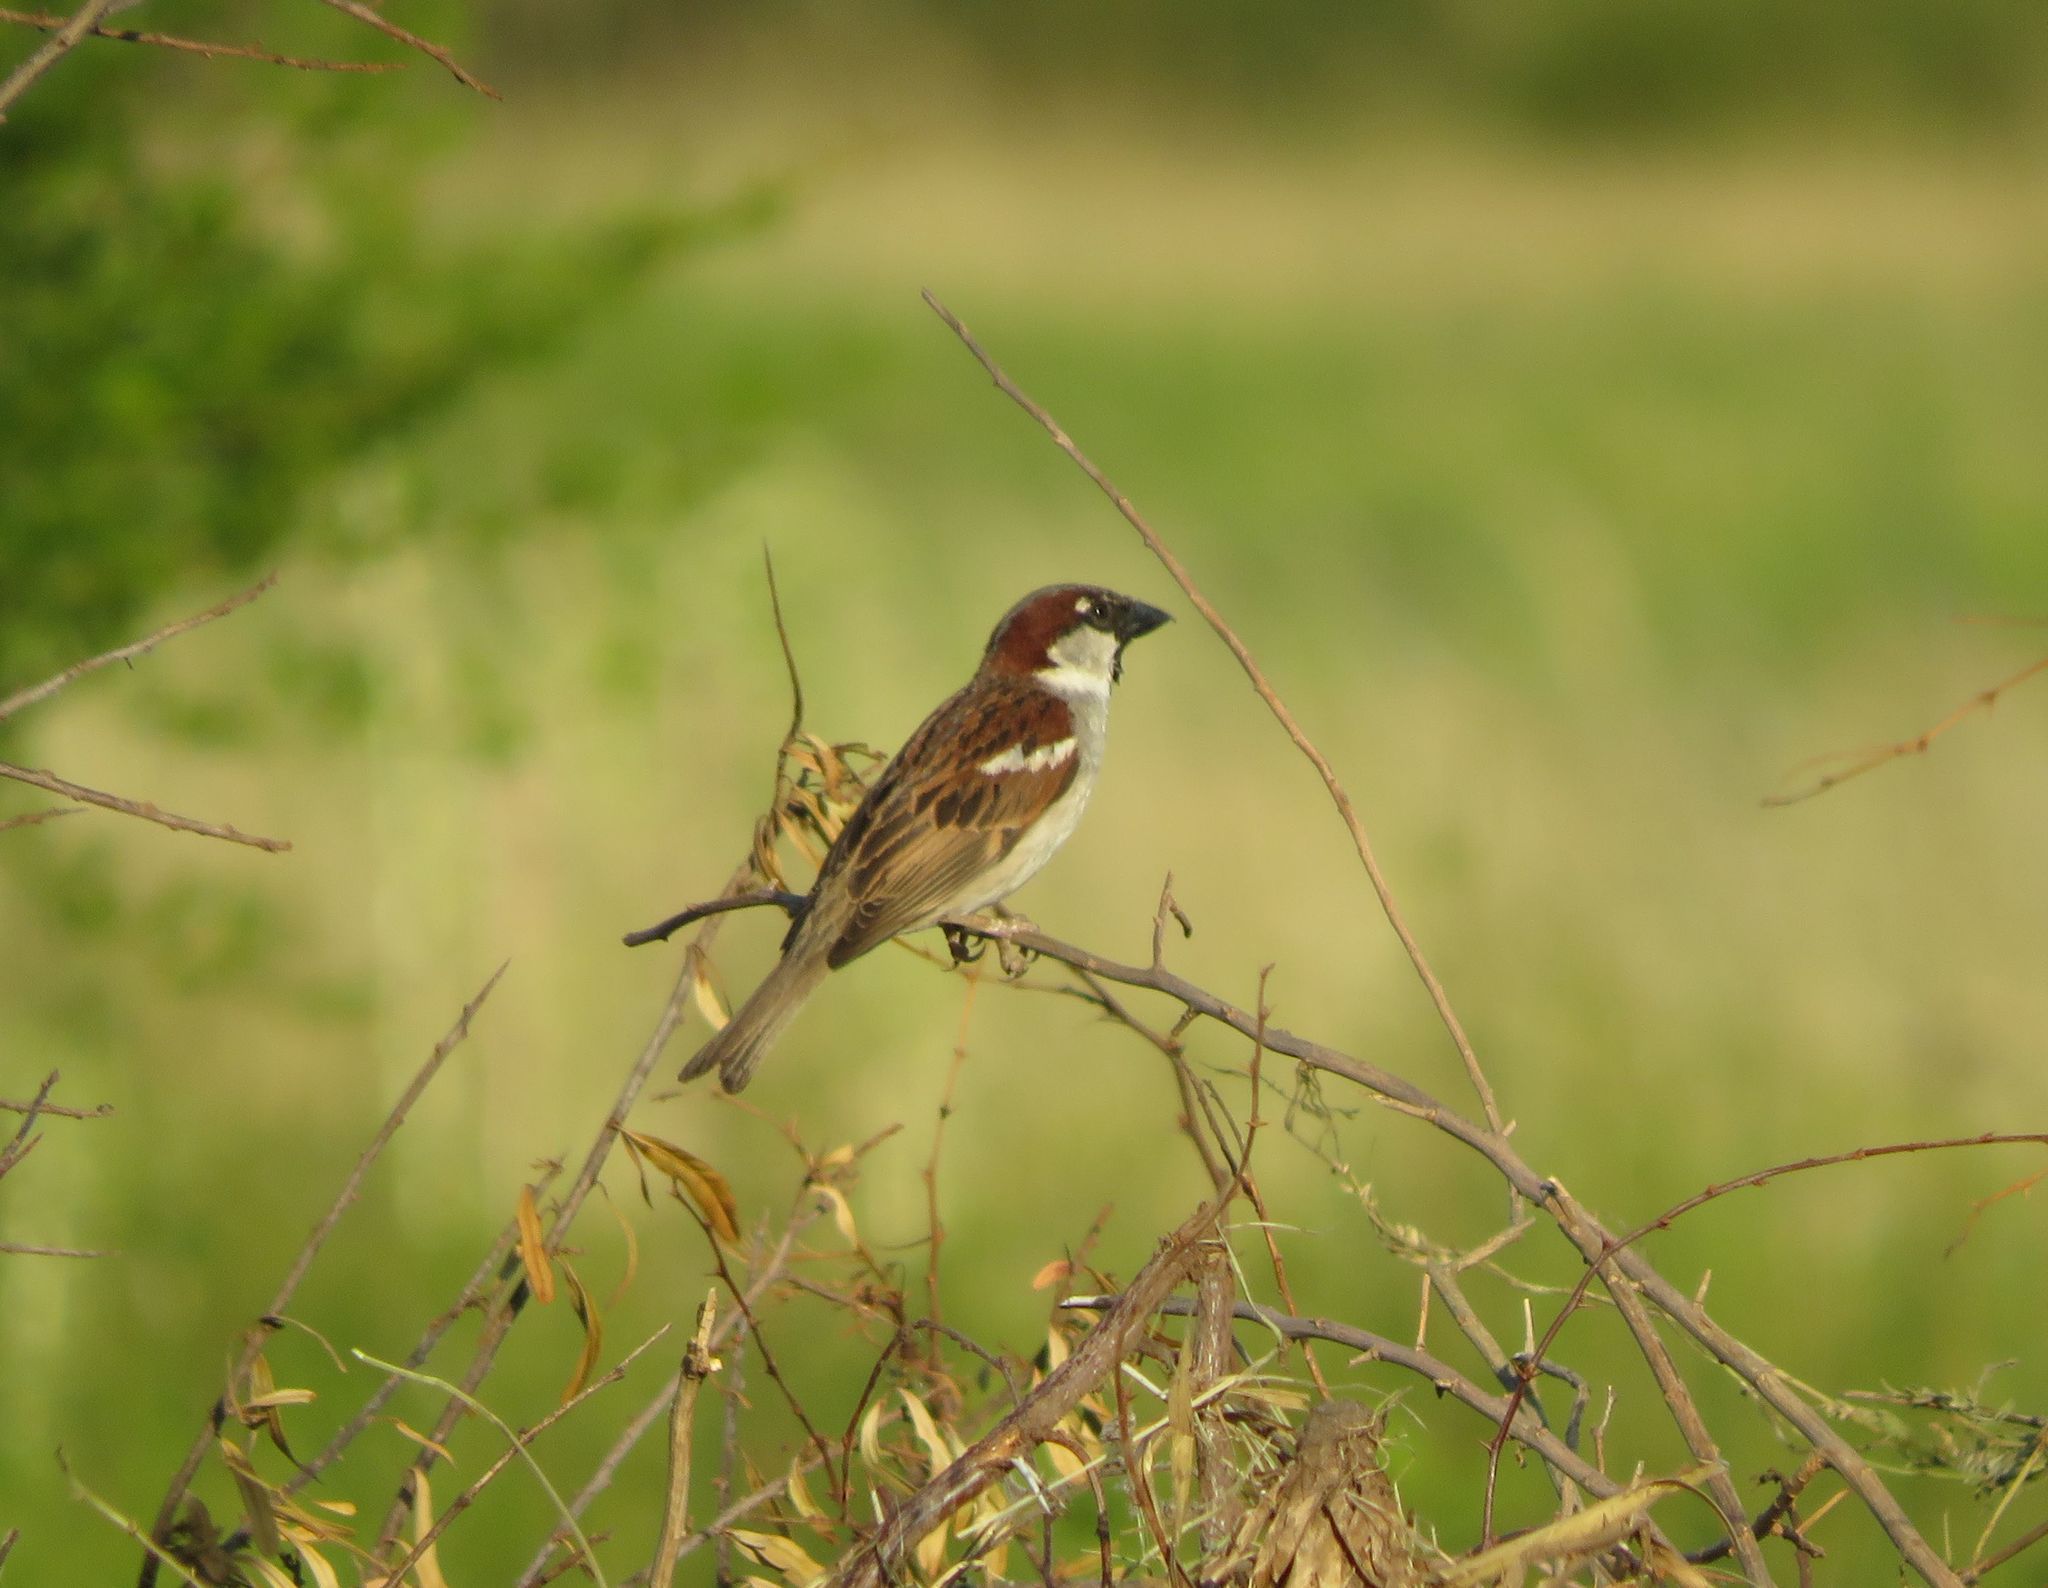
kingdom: Animalia
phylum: Chordata
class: Aves
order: Passeriformes
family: Passeridae
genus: Passer
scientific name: Passer domesticus
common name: House sparrow
